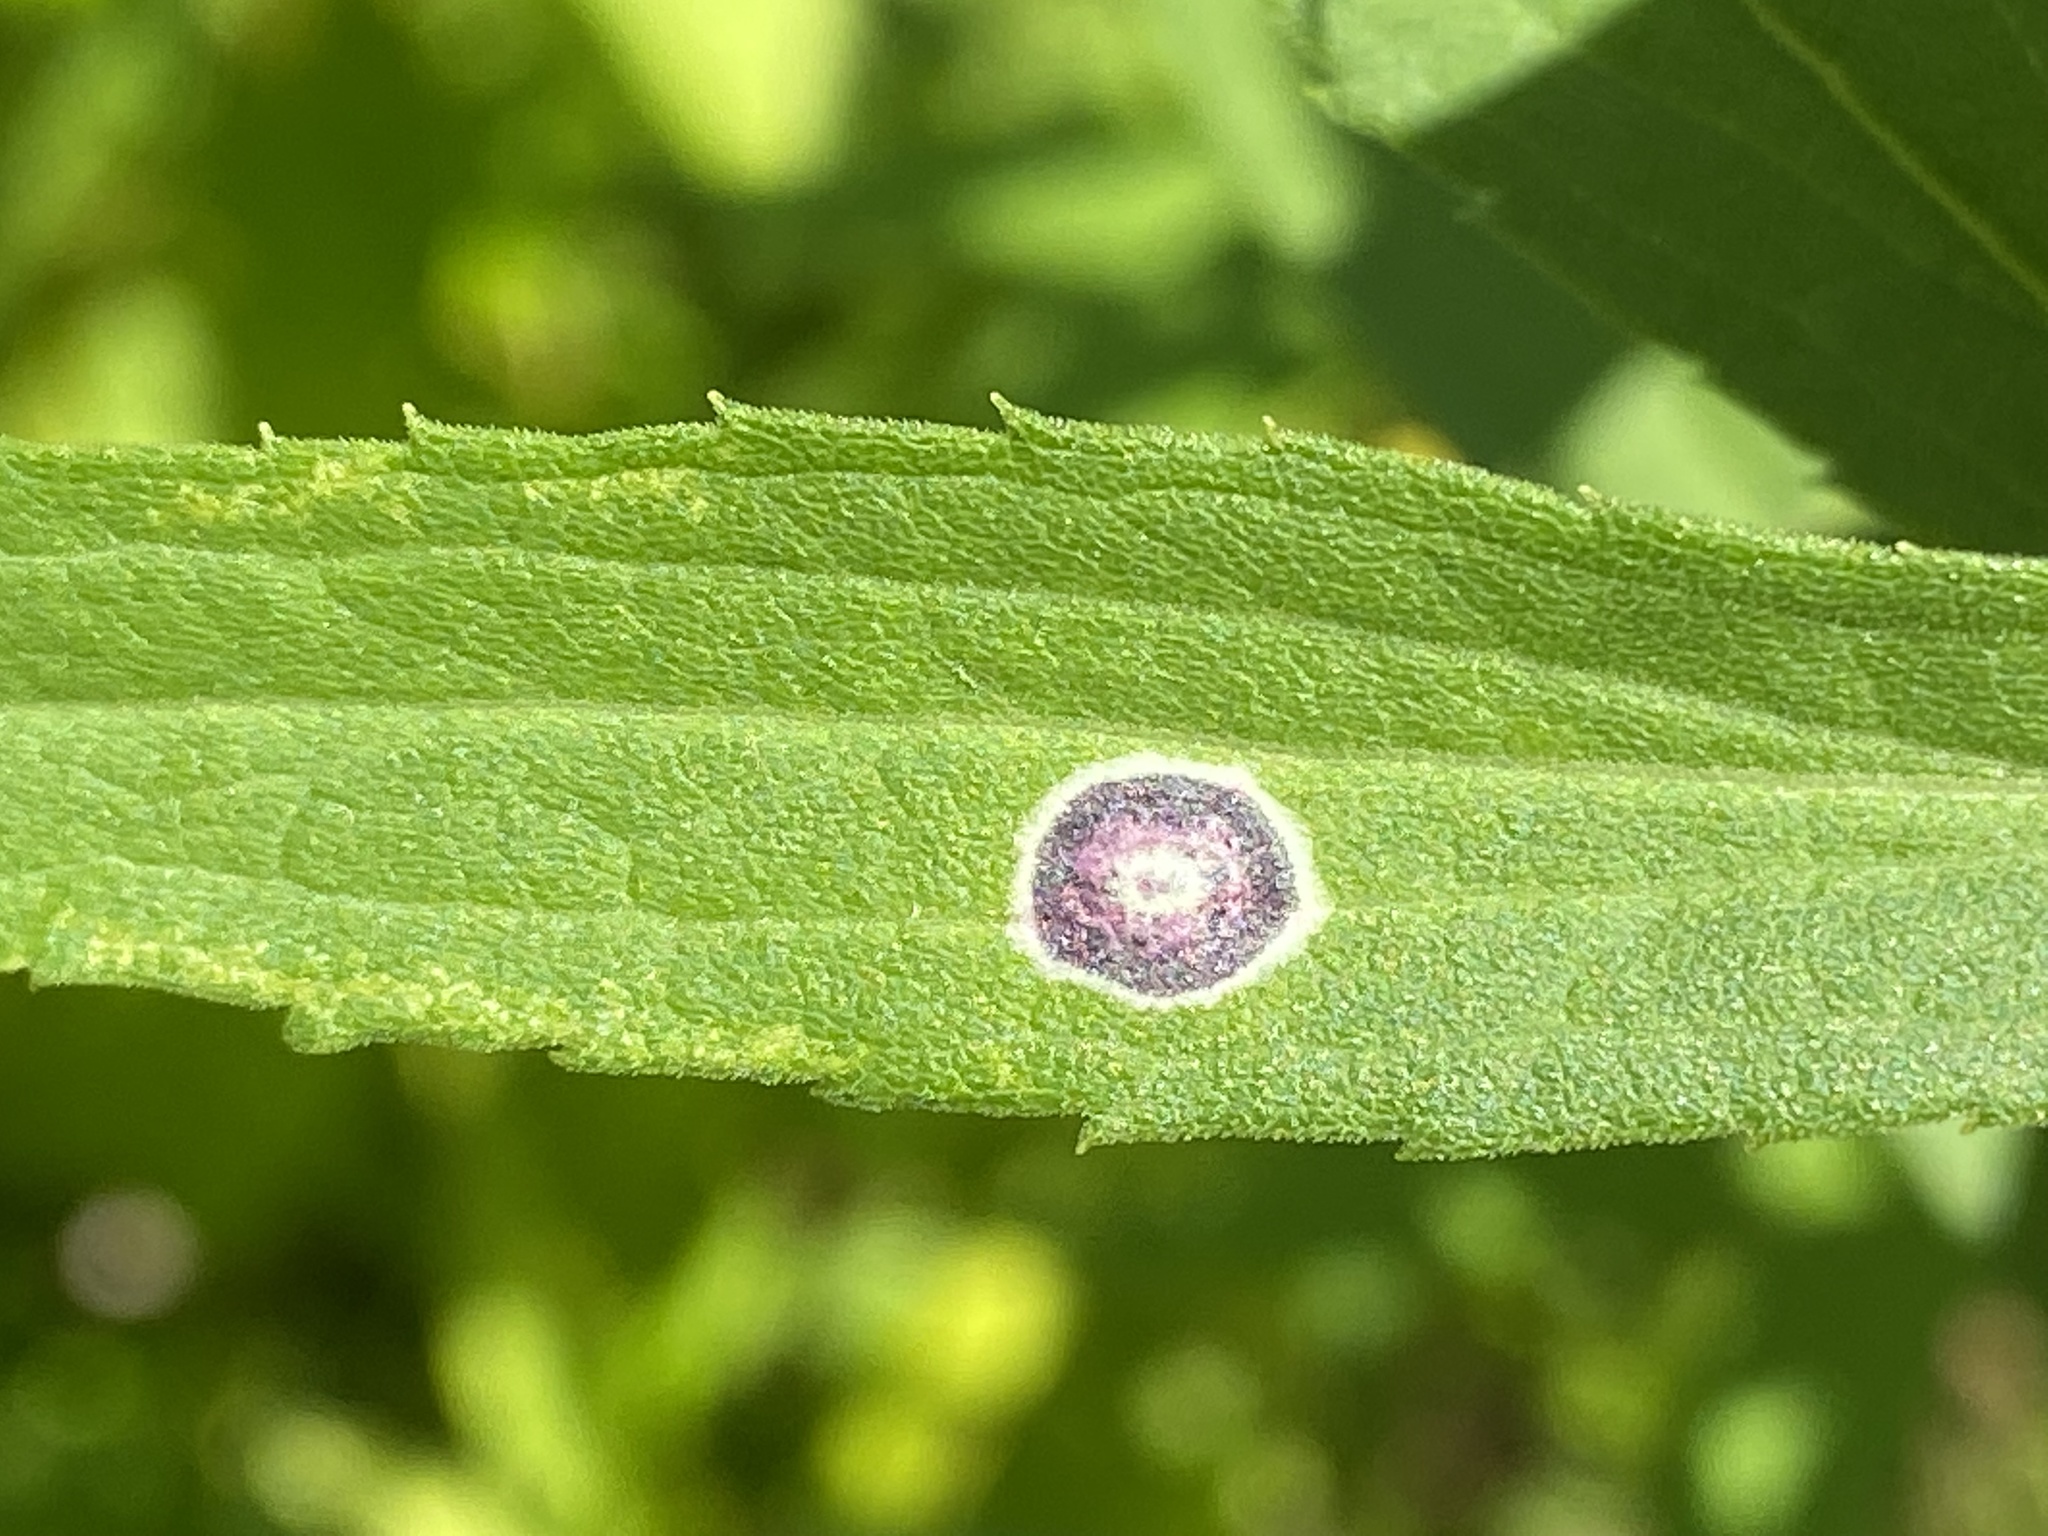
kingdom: Animalia
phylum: Arthropoda
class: Insecta
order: Diptera
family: Cecidomyiidae
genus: Asteromyia
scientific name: Asteromyia carbonifera
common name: Carbonifera goldenrod gall midge
